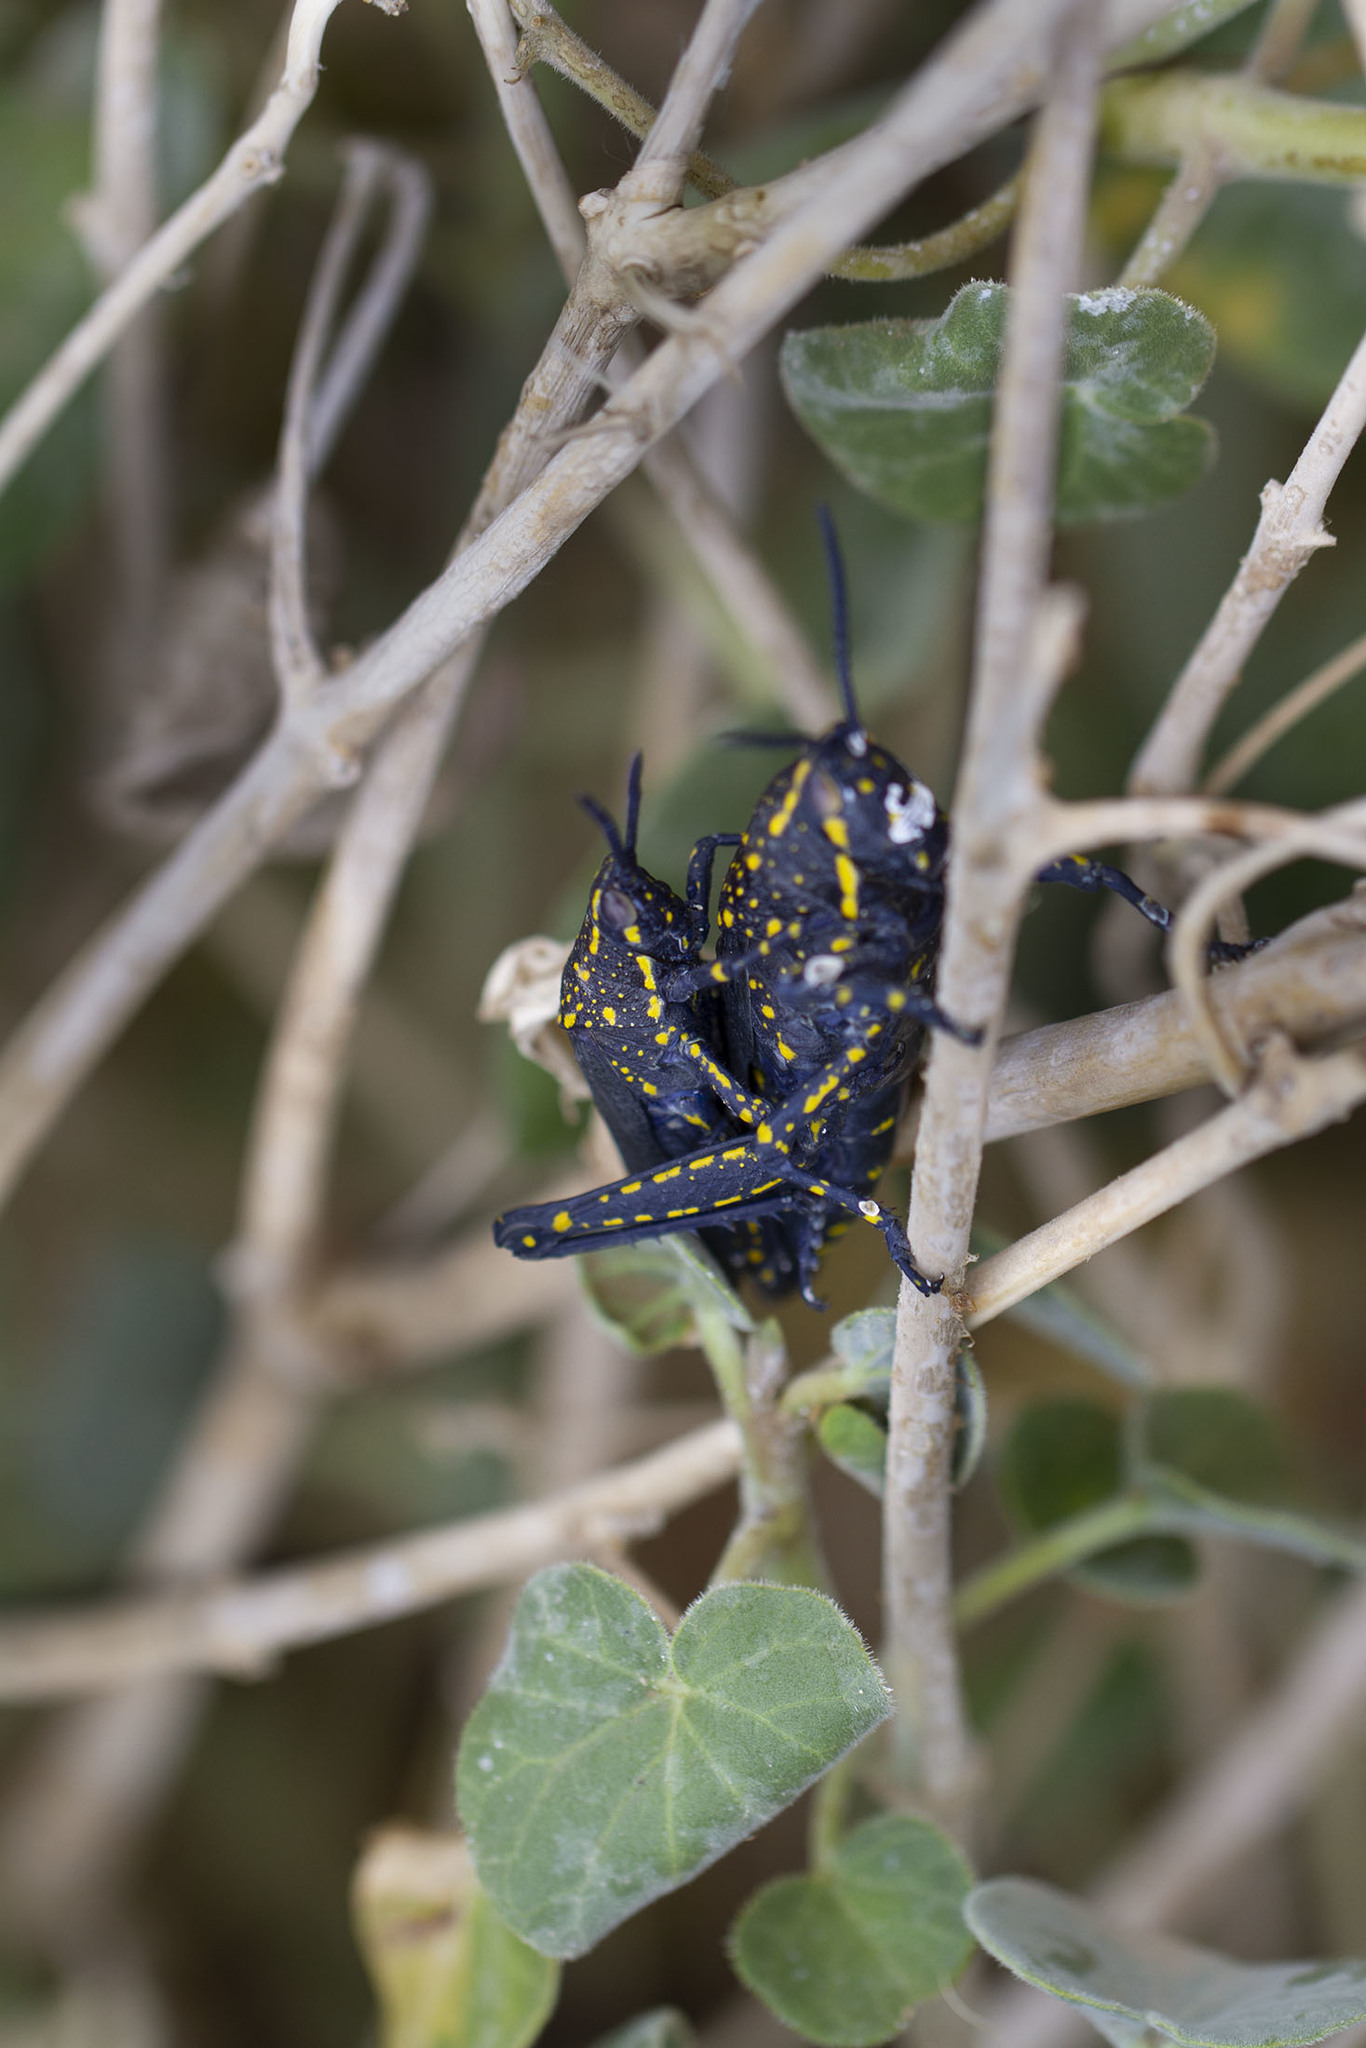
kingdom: Animalia
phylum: Arthropoda
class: Insecta
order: Orthoptera
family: Pyrgomorphidae
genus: Poekilocerus
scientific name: Poekilocerus bufonius
